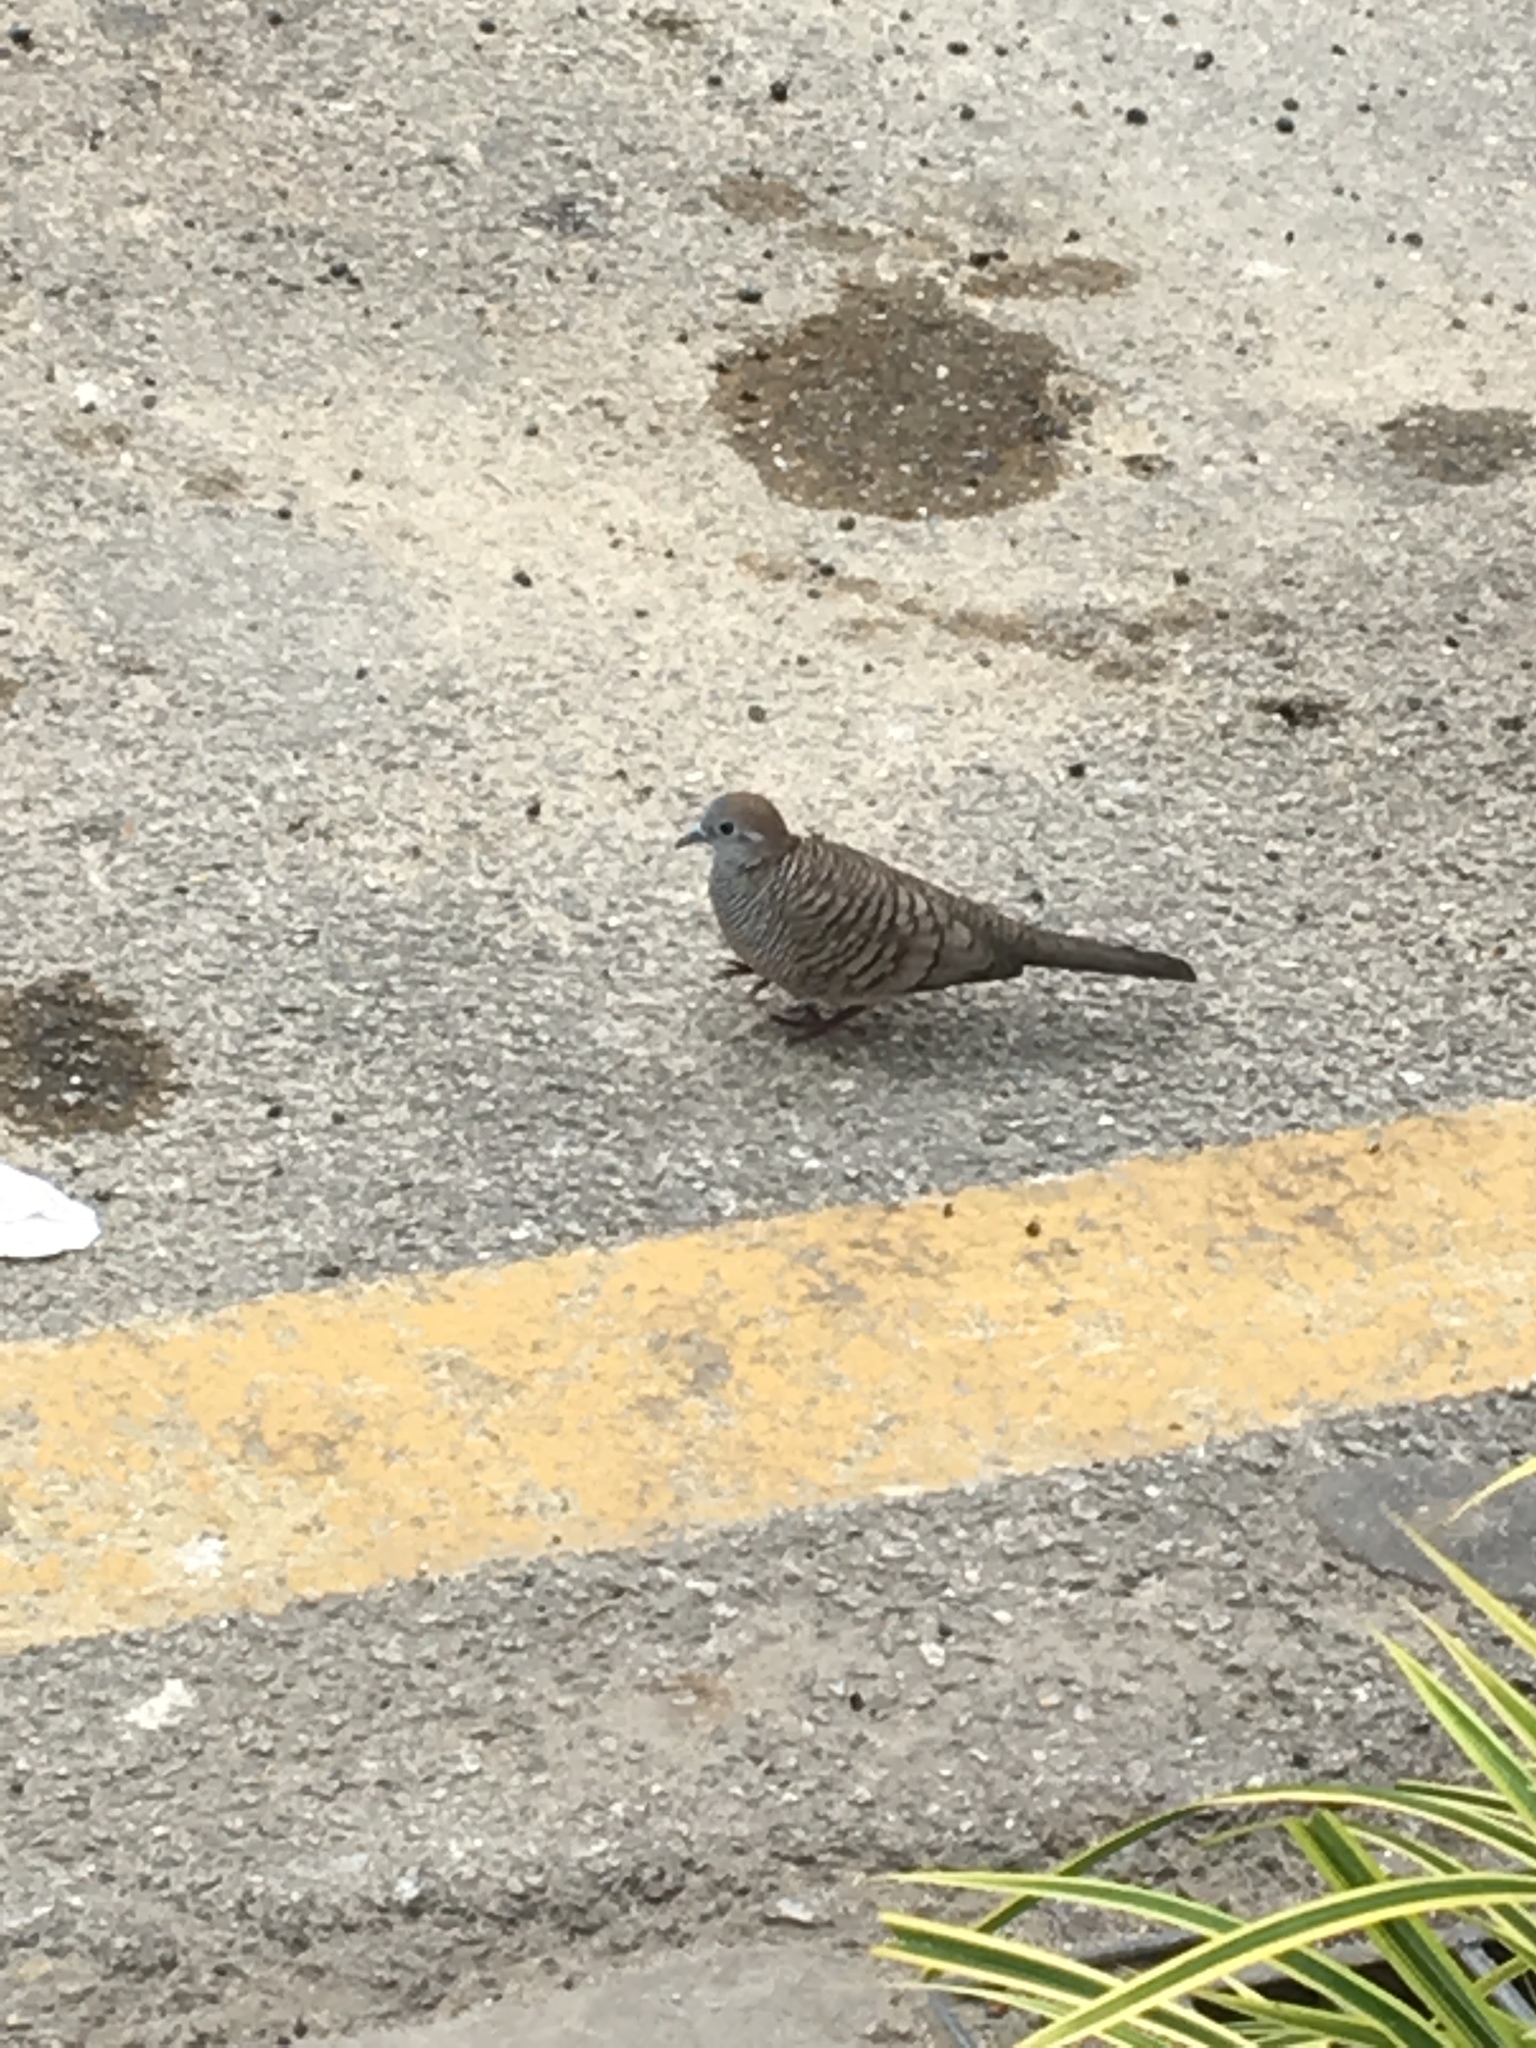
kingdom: Animalia
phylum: Chordata
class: Aves
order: Columbiformes
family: Columbidae
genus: Geopelia
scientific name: Geopelia striata
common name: Zebra dove
